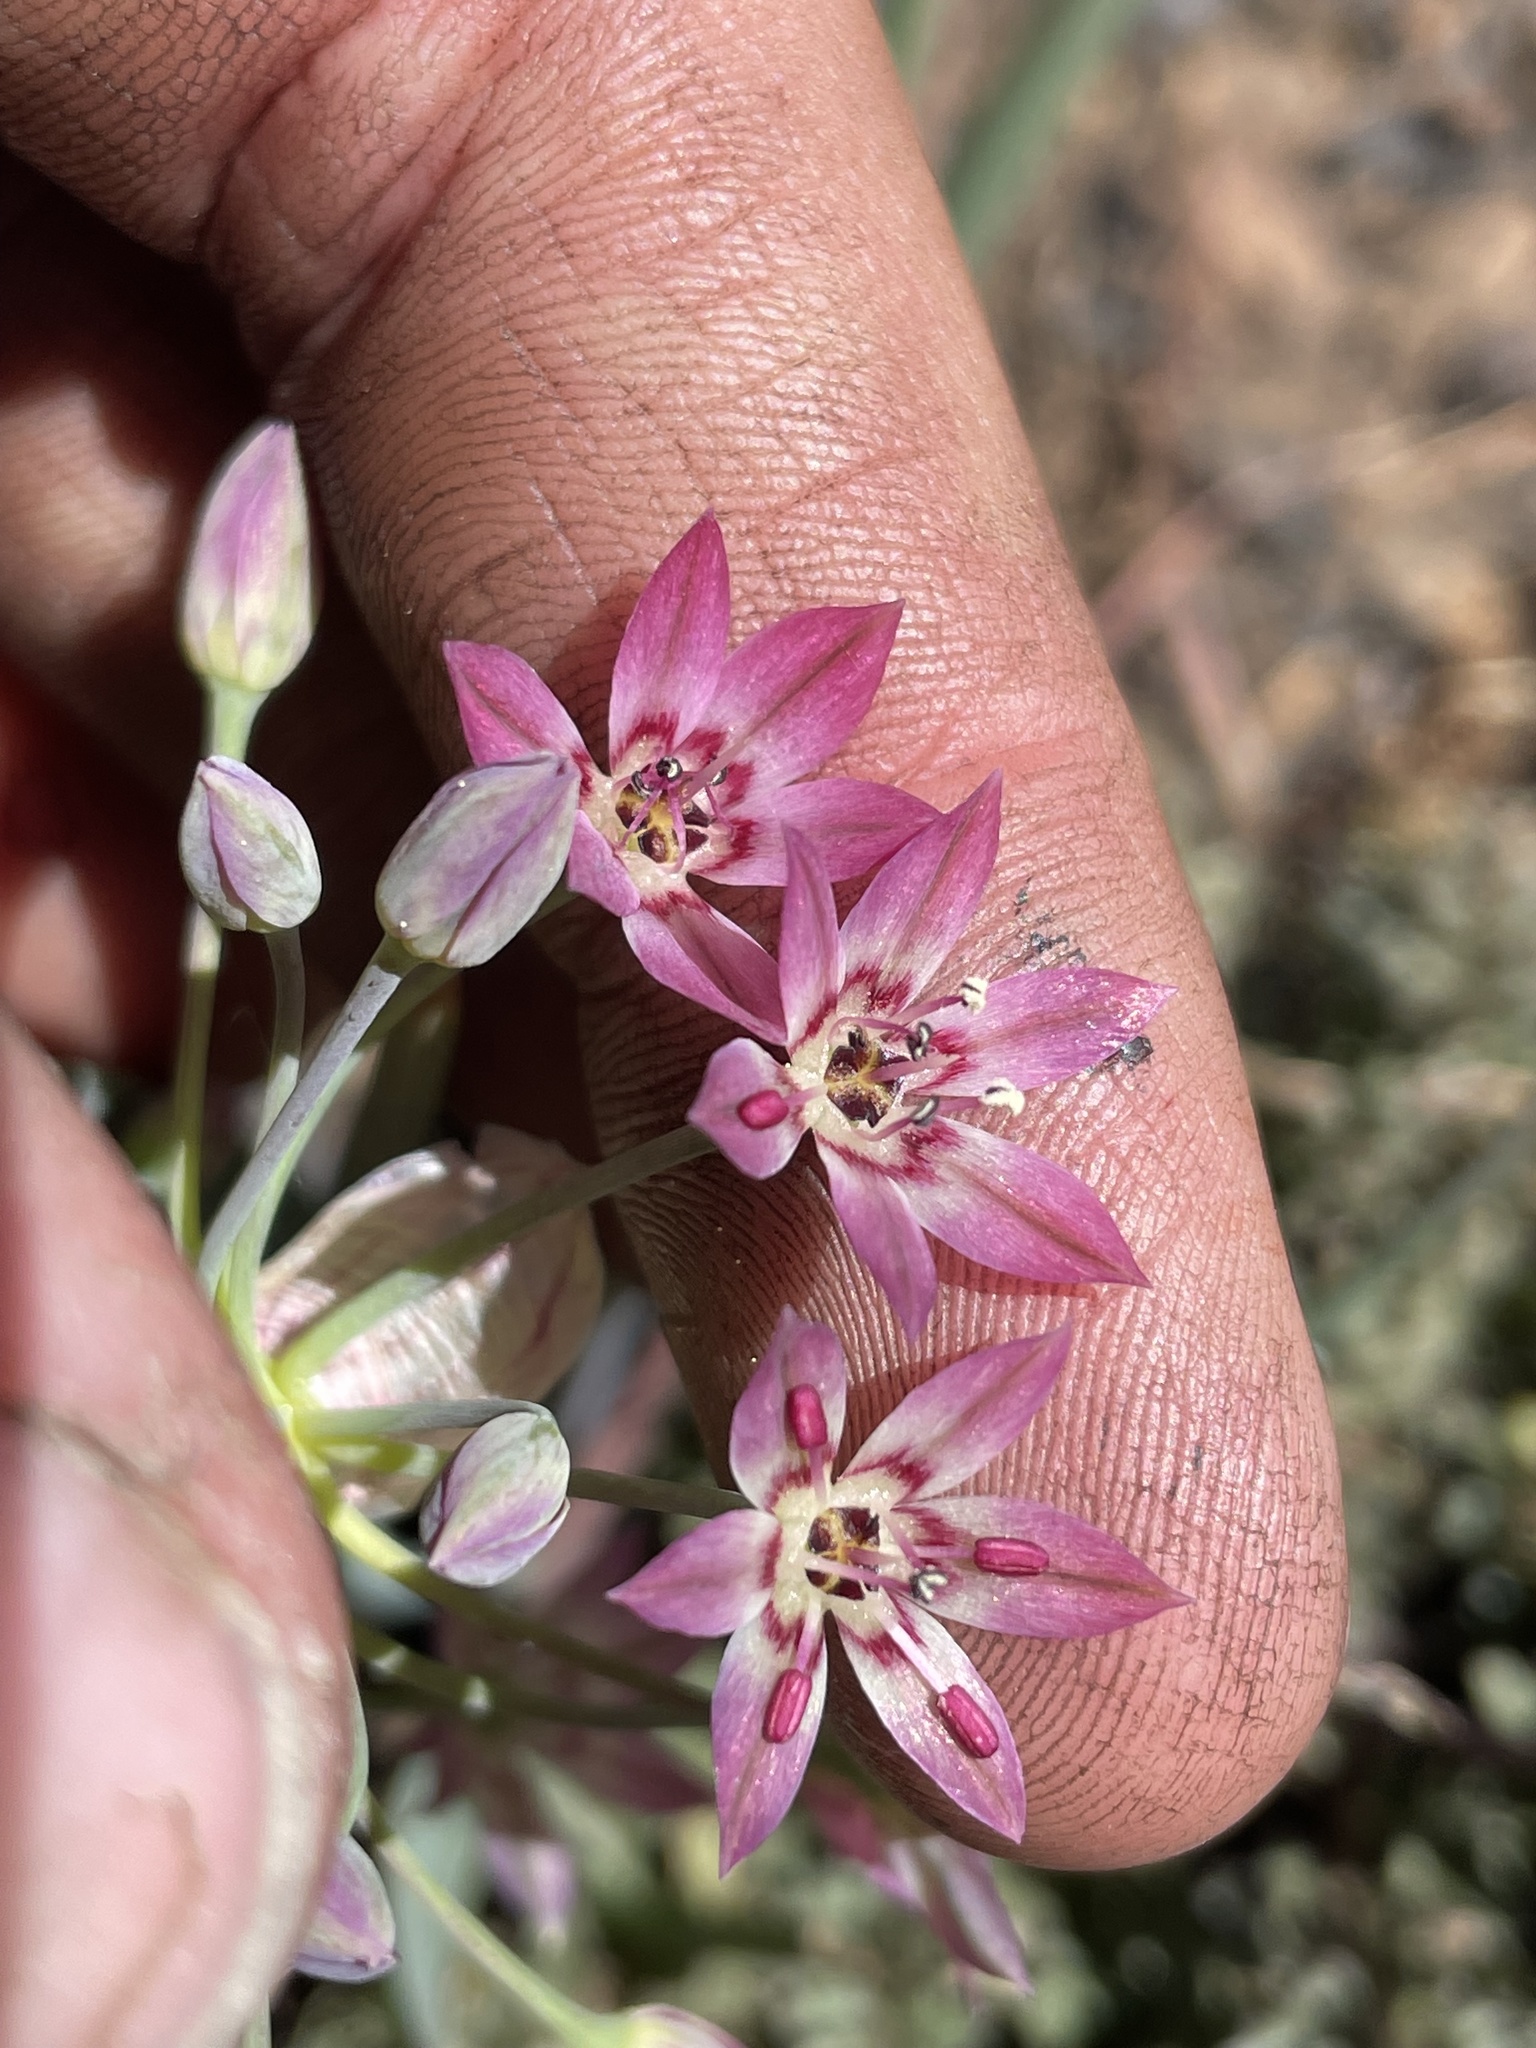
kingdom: Plantae
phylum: Tracheophyta
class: Liliopsida
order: Asparagales
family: Amaryllidaceae
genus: Allium
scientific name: Allium campanulatum
